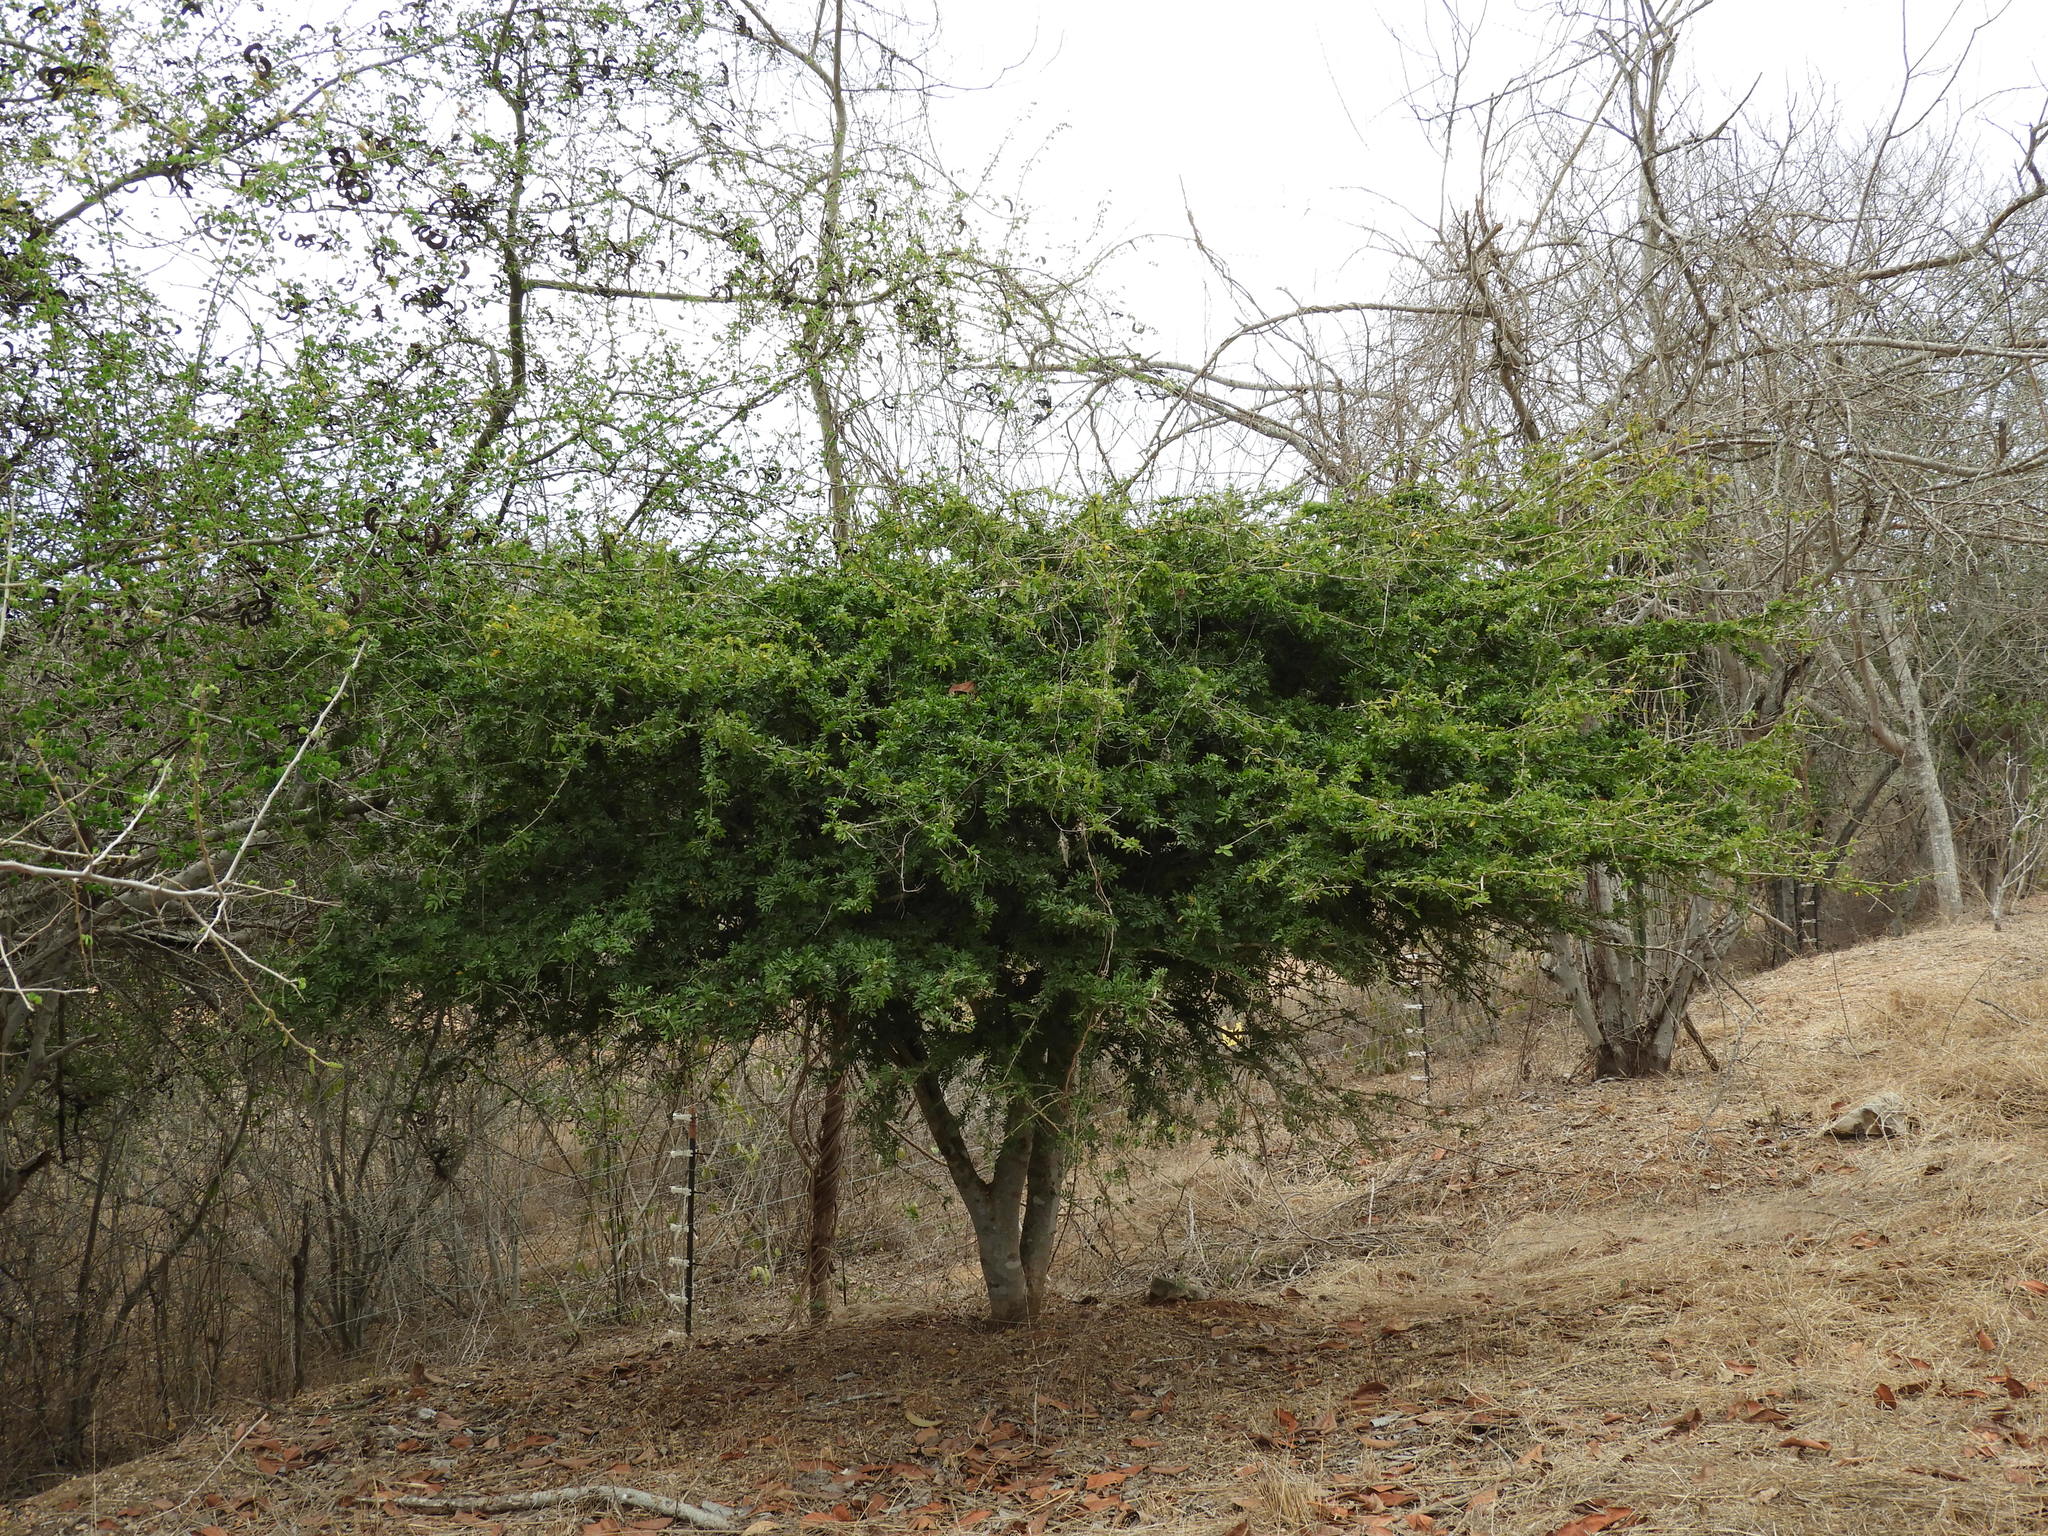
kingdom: Plantae
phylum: Tracheophyta
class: Magnoliopsida
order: Zygophyllales
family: Zygophyllaceae
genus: Guaiacum
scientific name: Guaiacum coulteri
